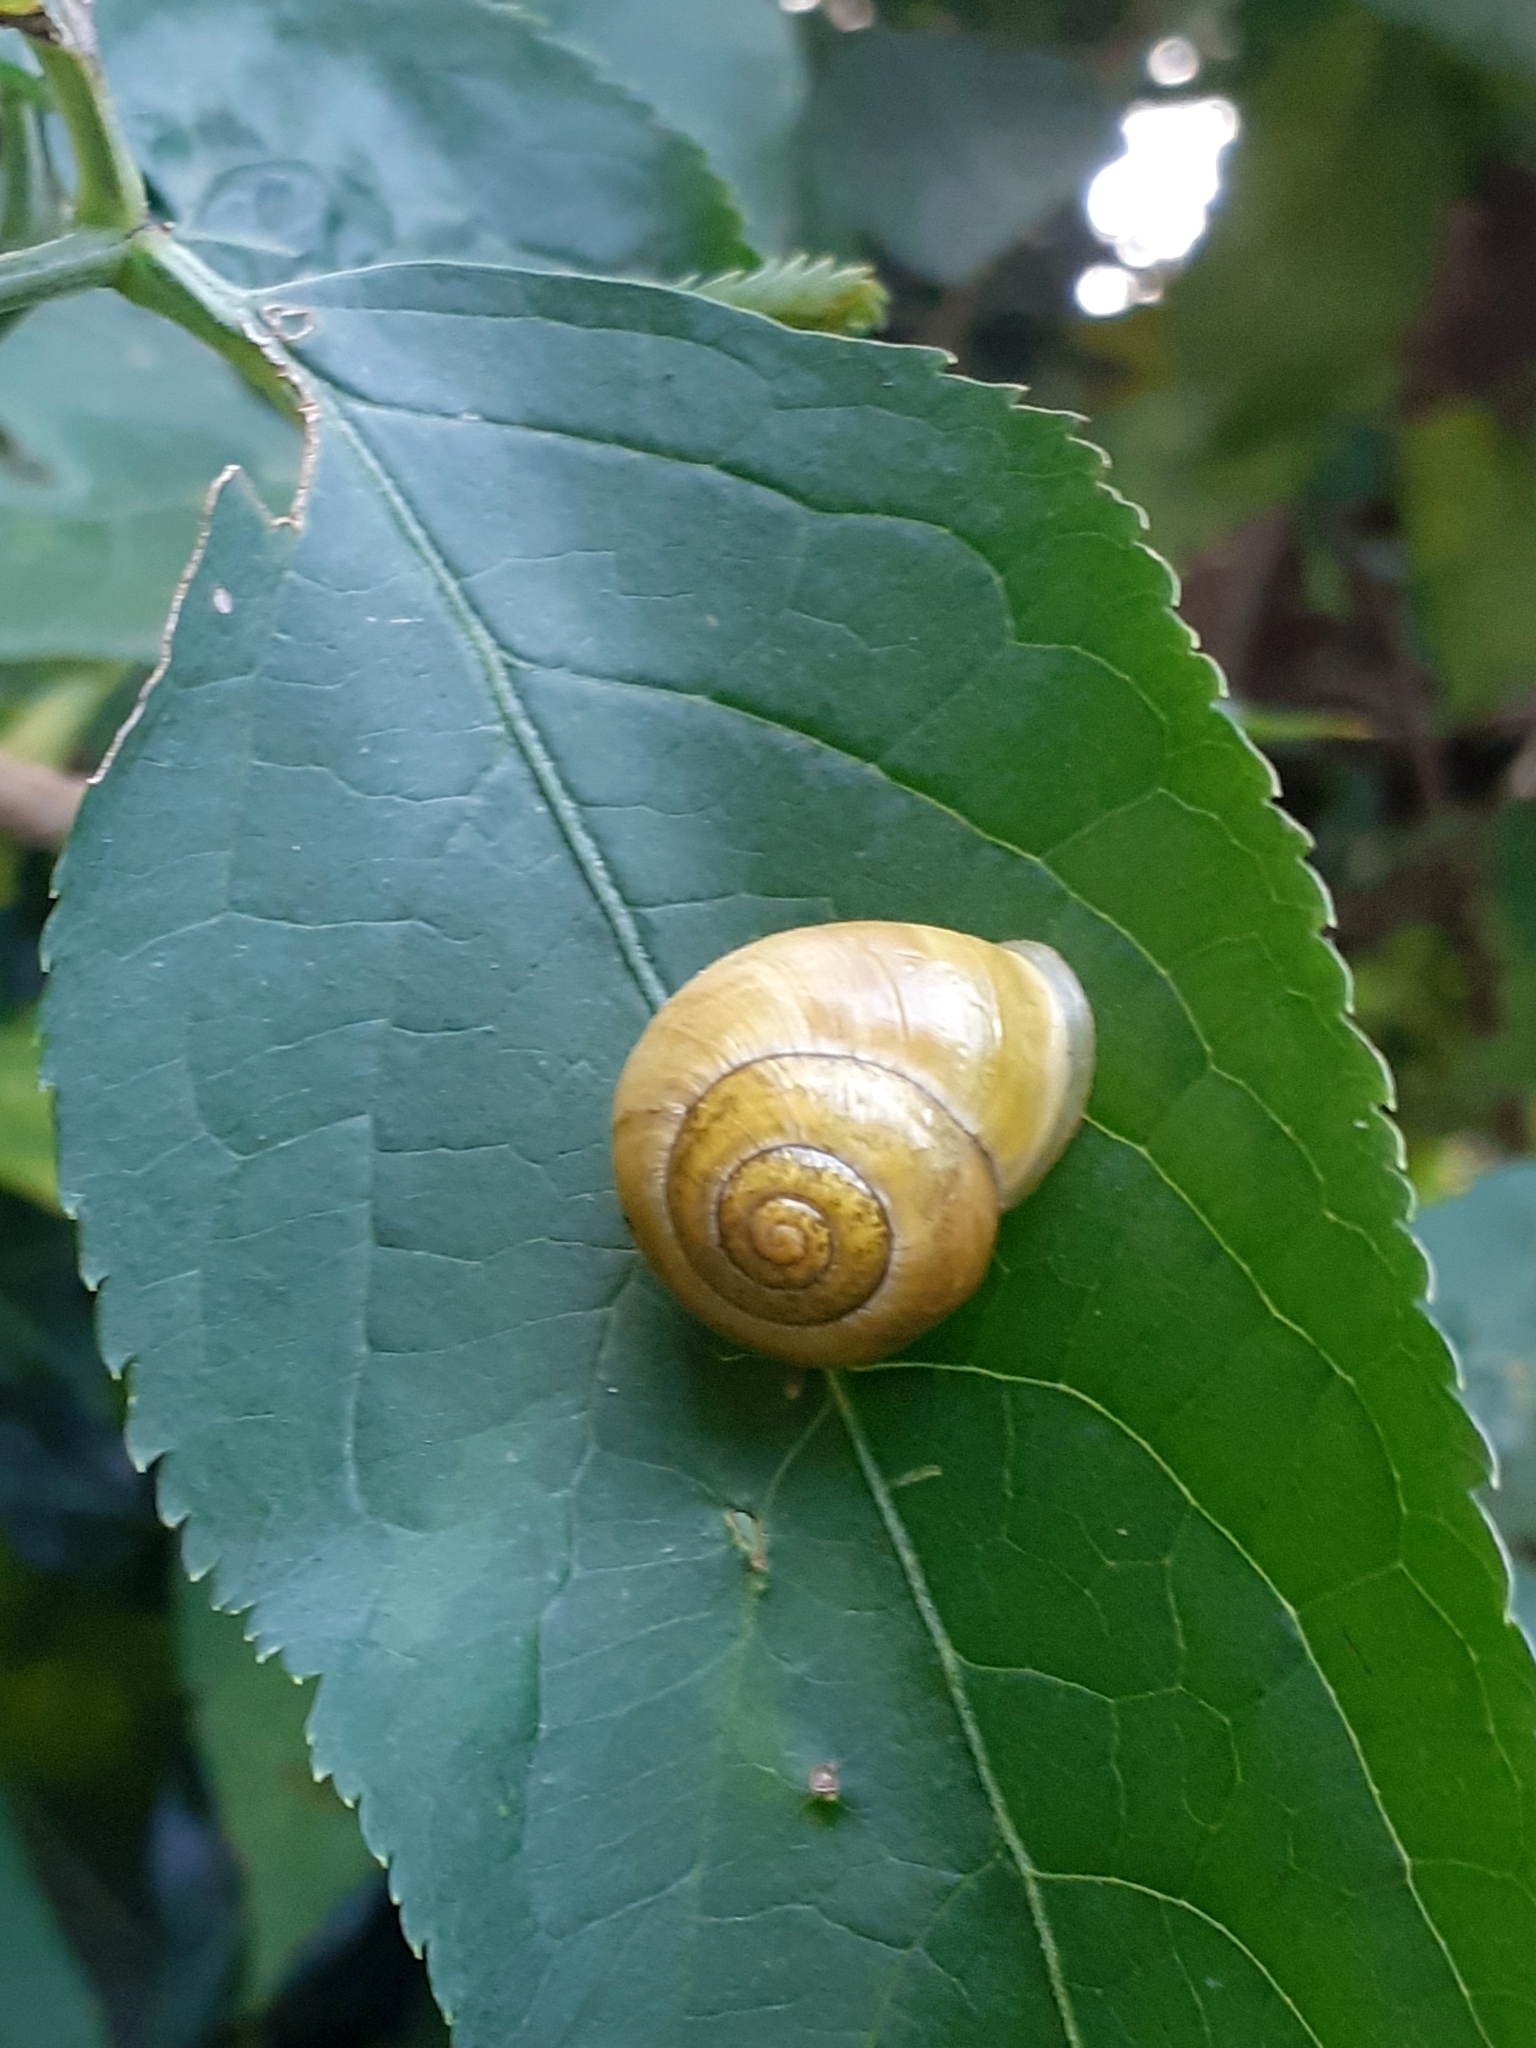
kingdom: Animalia
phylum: Mollusca
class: Gastropoda
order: Stylommatophora
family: Helicidae
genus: Cepaea
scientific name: Cepaea hortensis
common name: White-lip gardensnail
